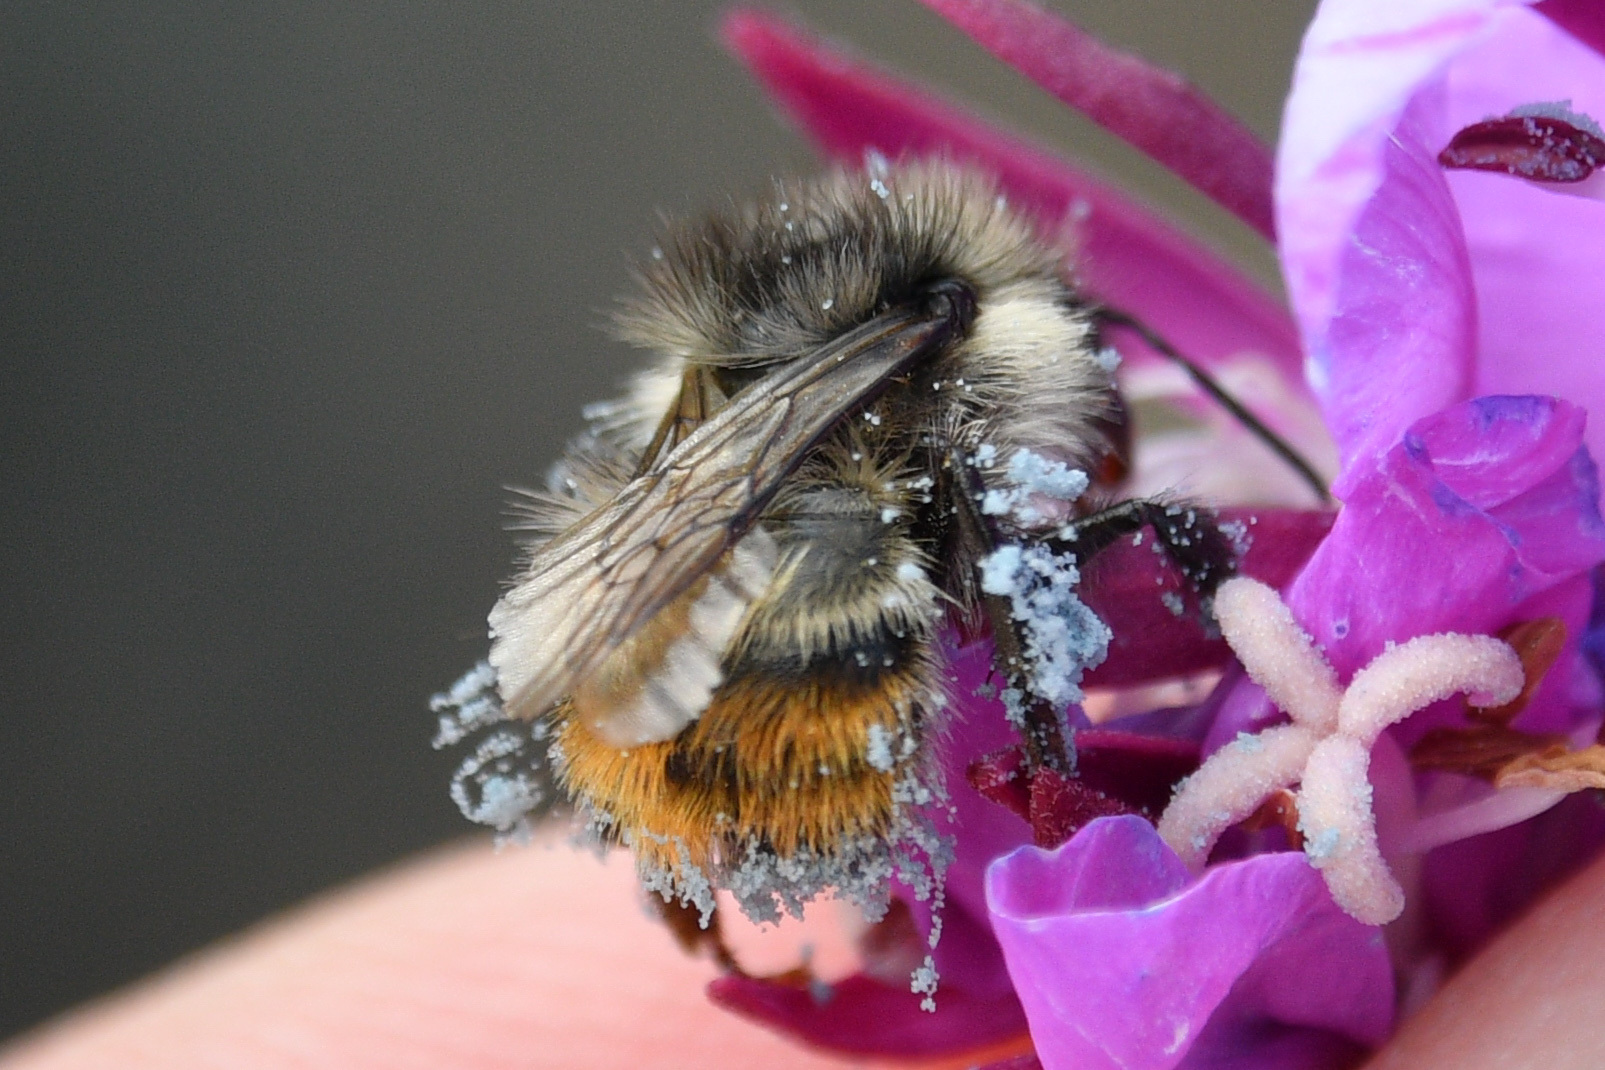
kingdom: Animalia
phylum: Arthropoda
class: Insecta
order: Hymenoptera
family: Apidae
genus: Bombus
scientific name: Bombus flavifrons
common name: Yellow head bumble bee
